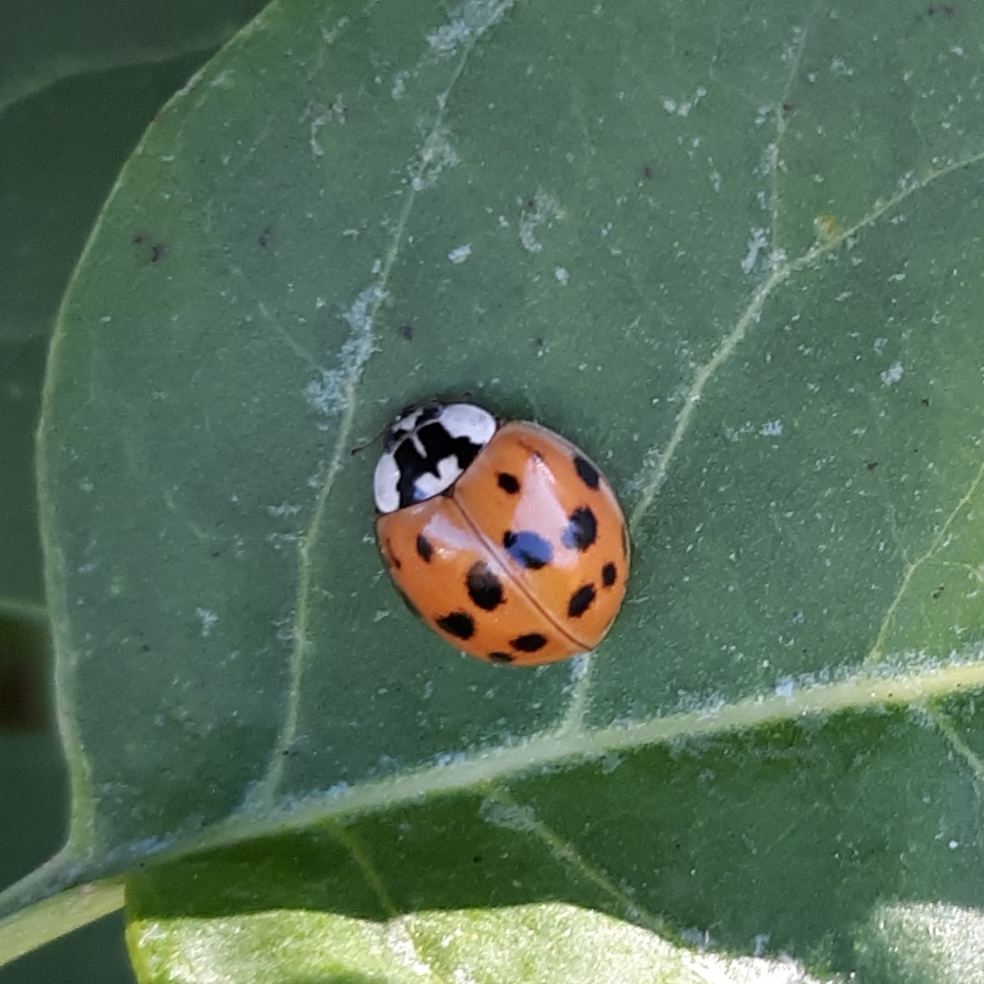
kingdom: Animalia
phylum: Arthropoda
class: Insecta
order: Coleoptera
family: Coccinellidae
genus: Harmonia
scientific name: Harmonia axyridis
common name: Harlequin ladybird
